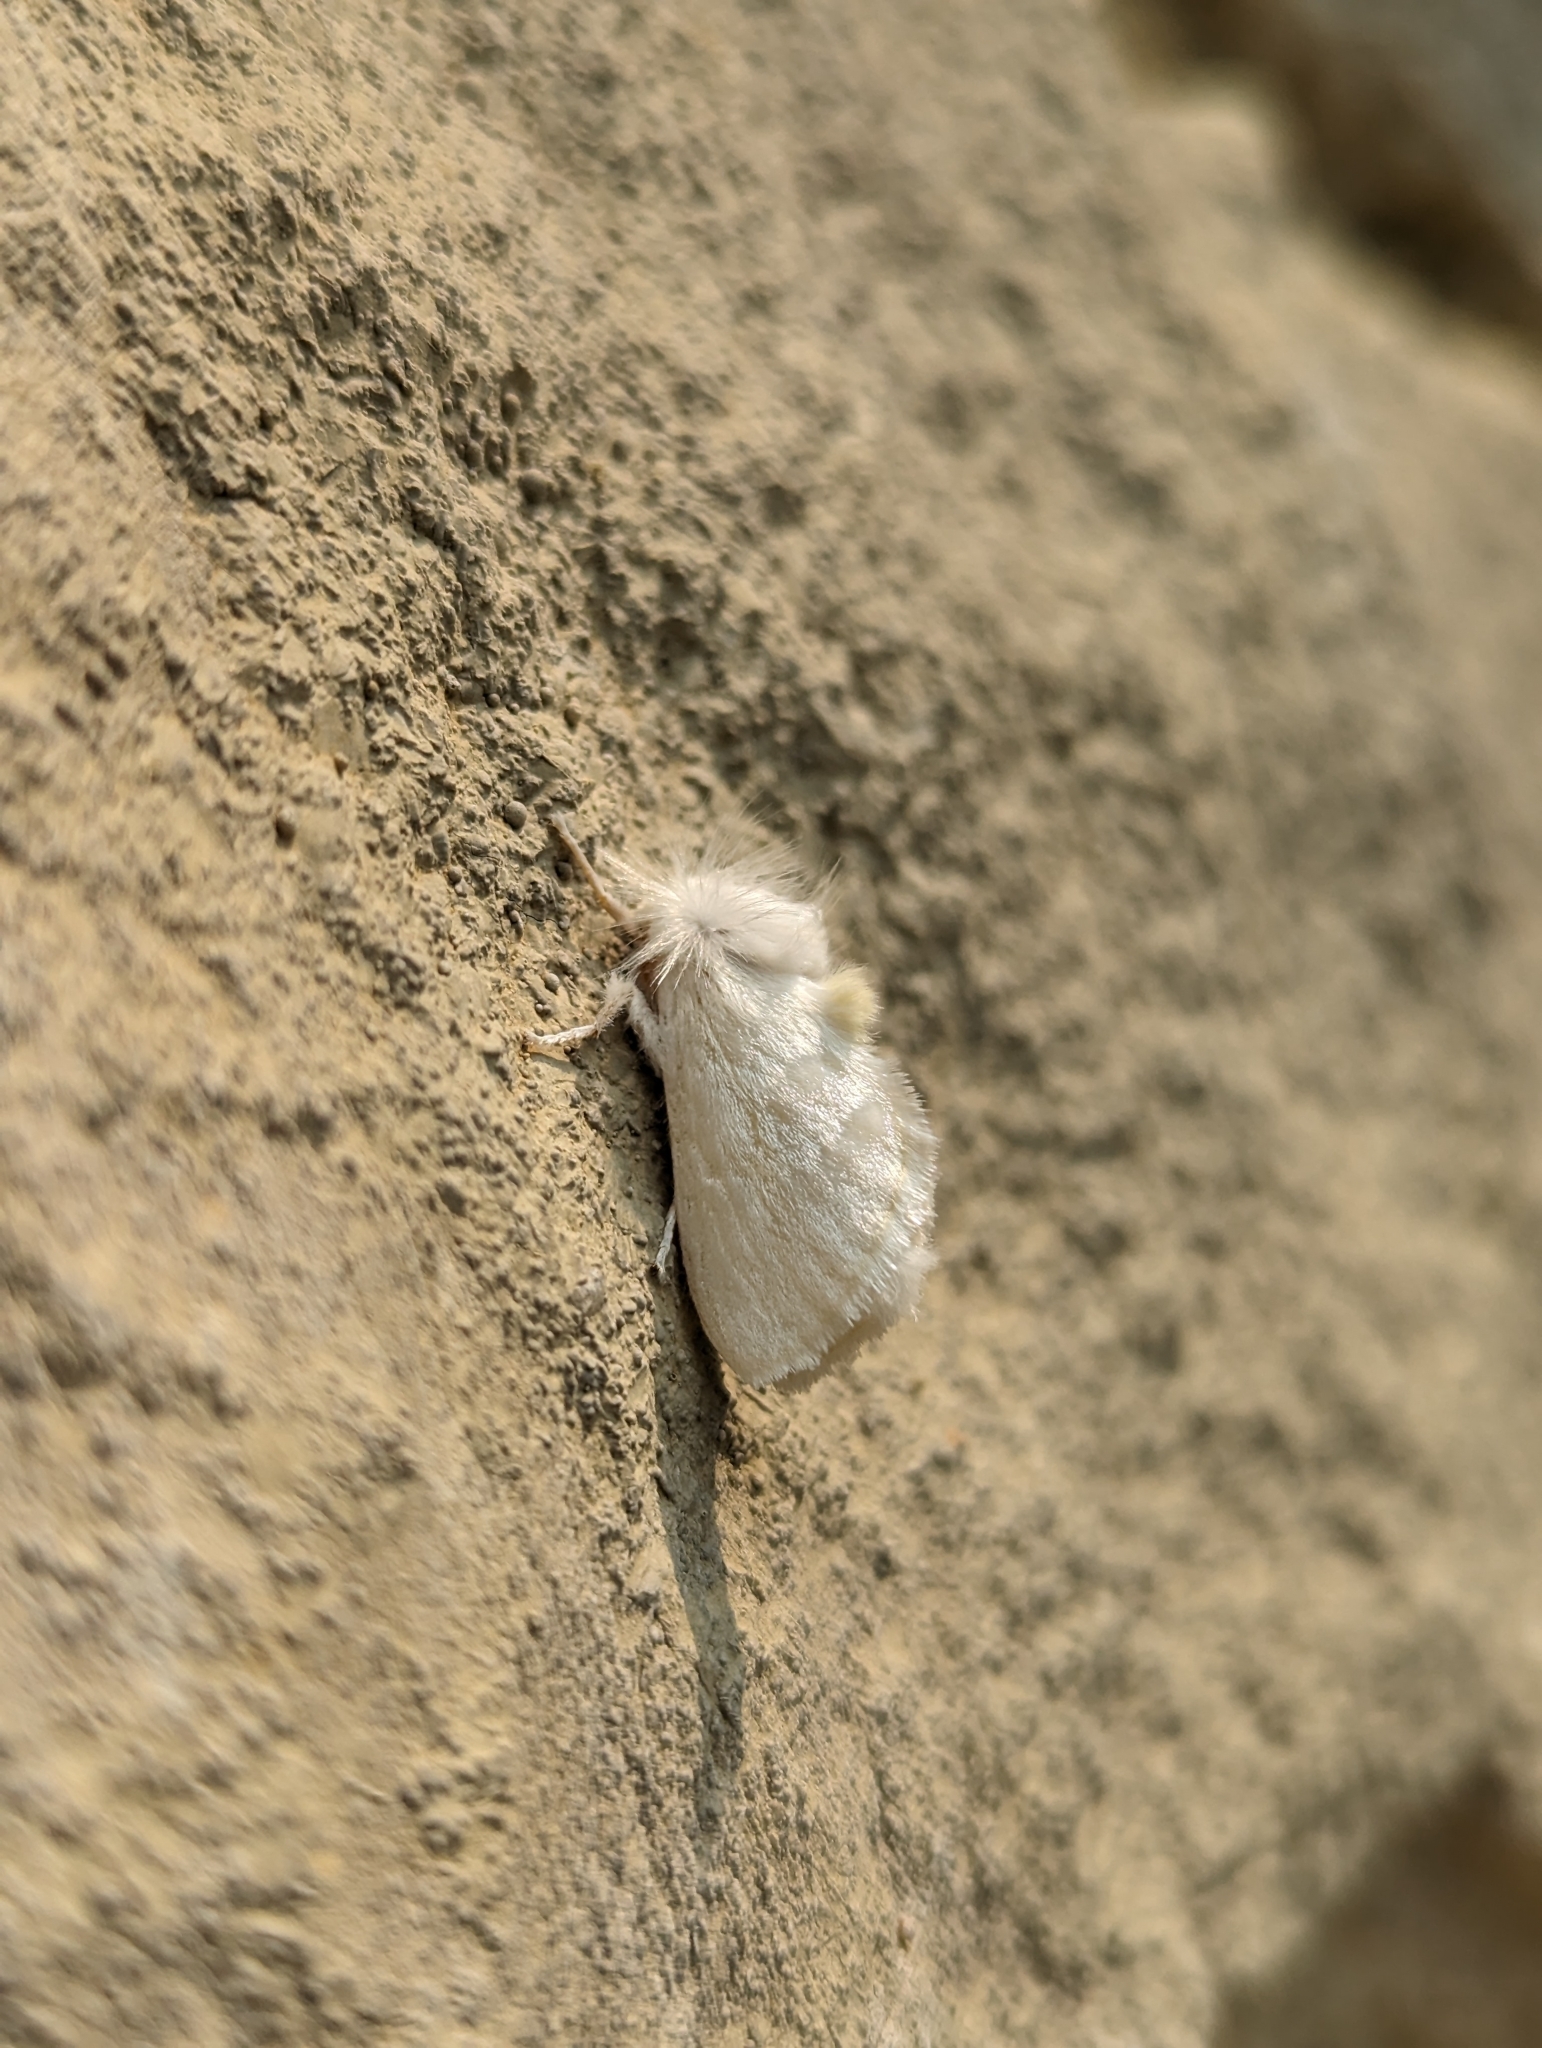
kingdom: Animalia
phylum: Arthropoda
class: Insecta
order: Lepidoptera
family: Megalopygidae
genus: Norape
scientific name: Norape cretata
